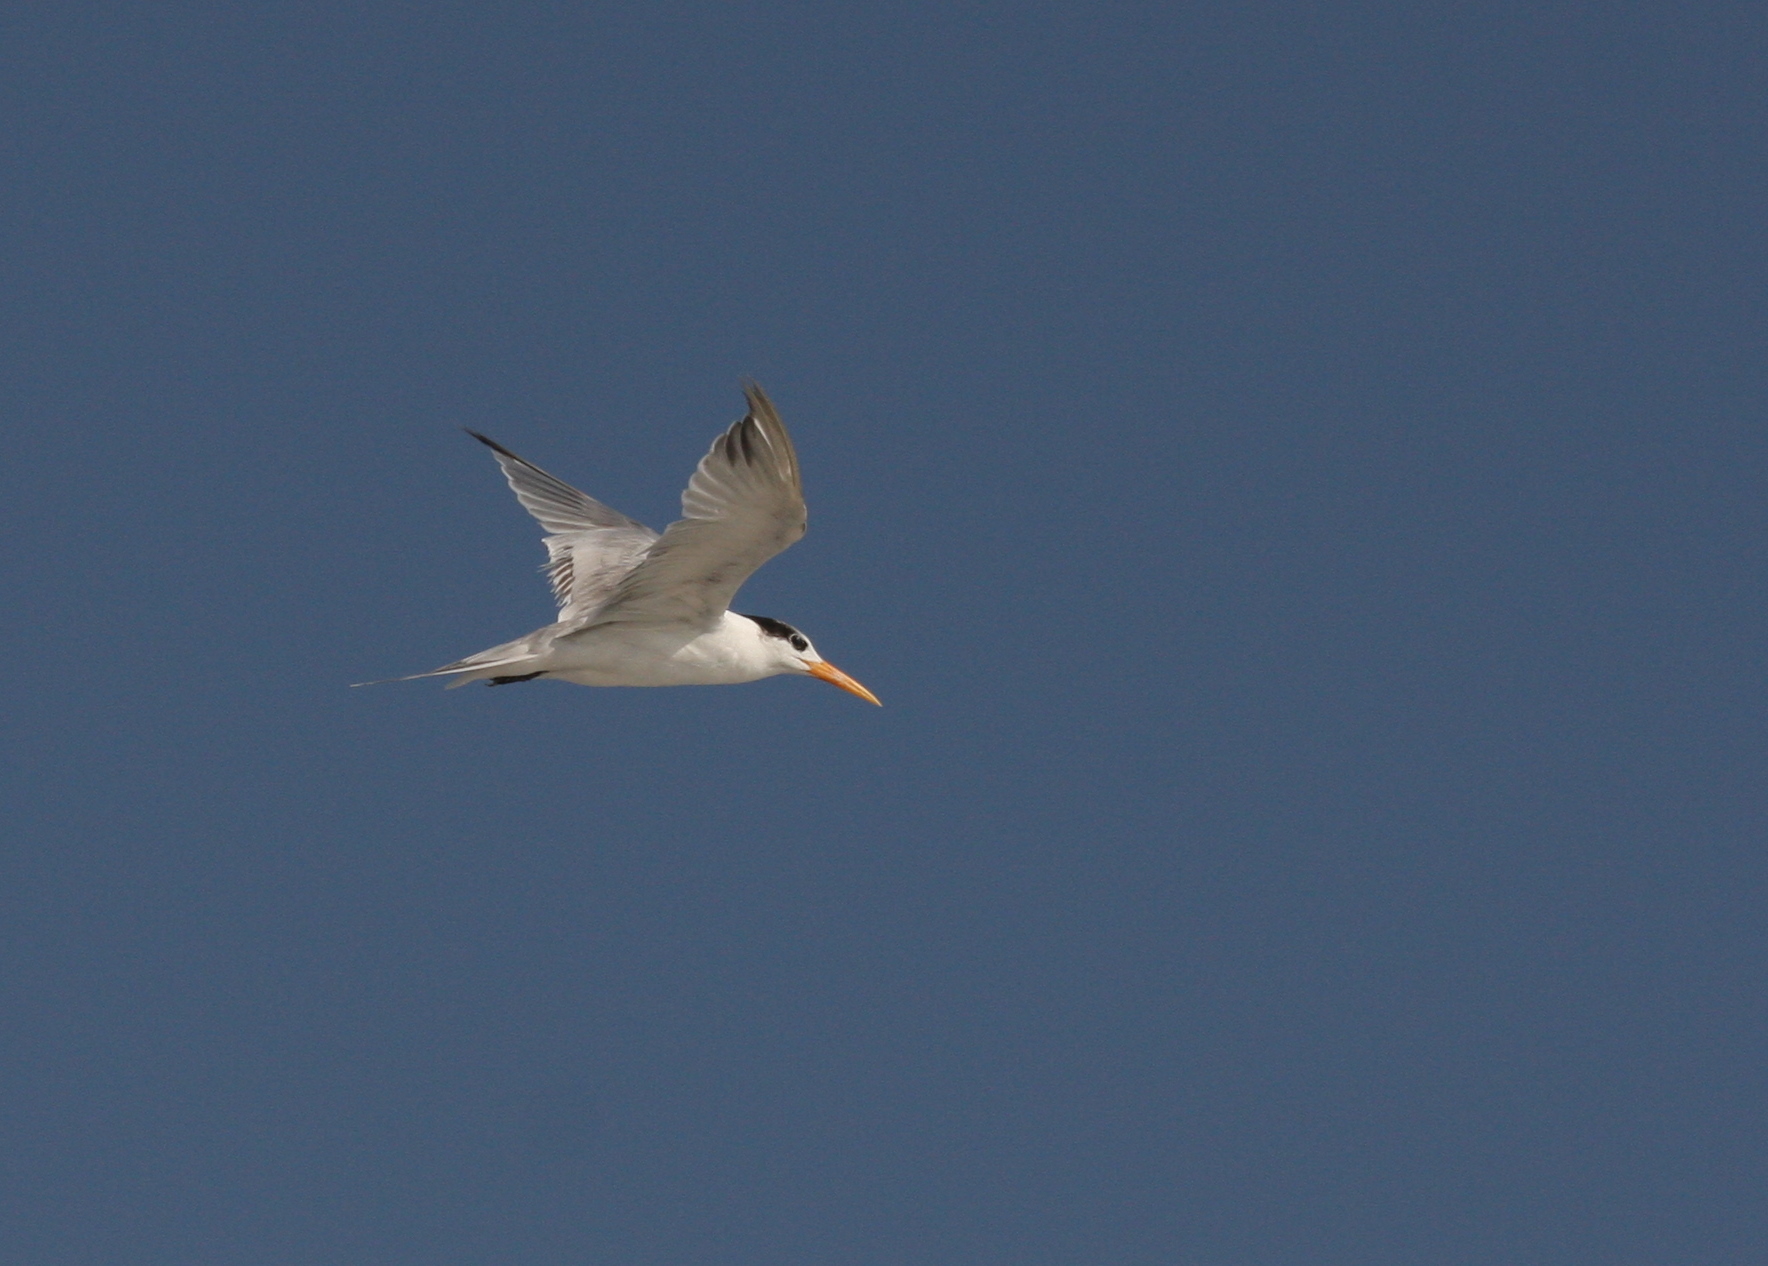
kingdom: Animalia
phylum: Chordata
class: Aves
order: Charadriiformes
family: Laridae
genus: Thalasseus
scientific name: Thalasseus bengalensis
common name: Lesser crested tern
